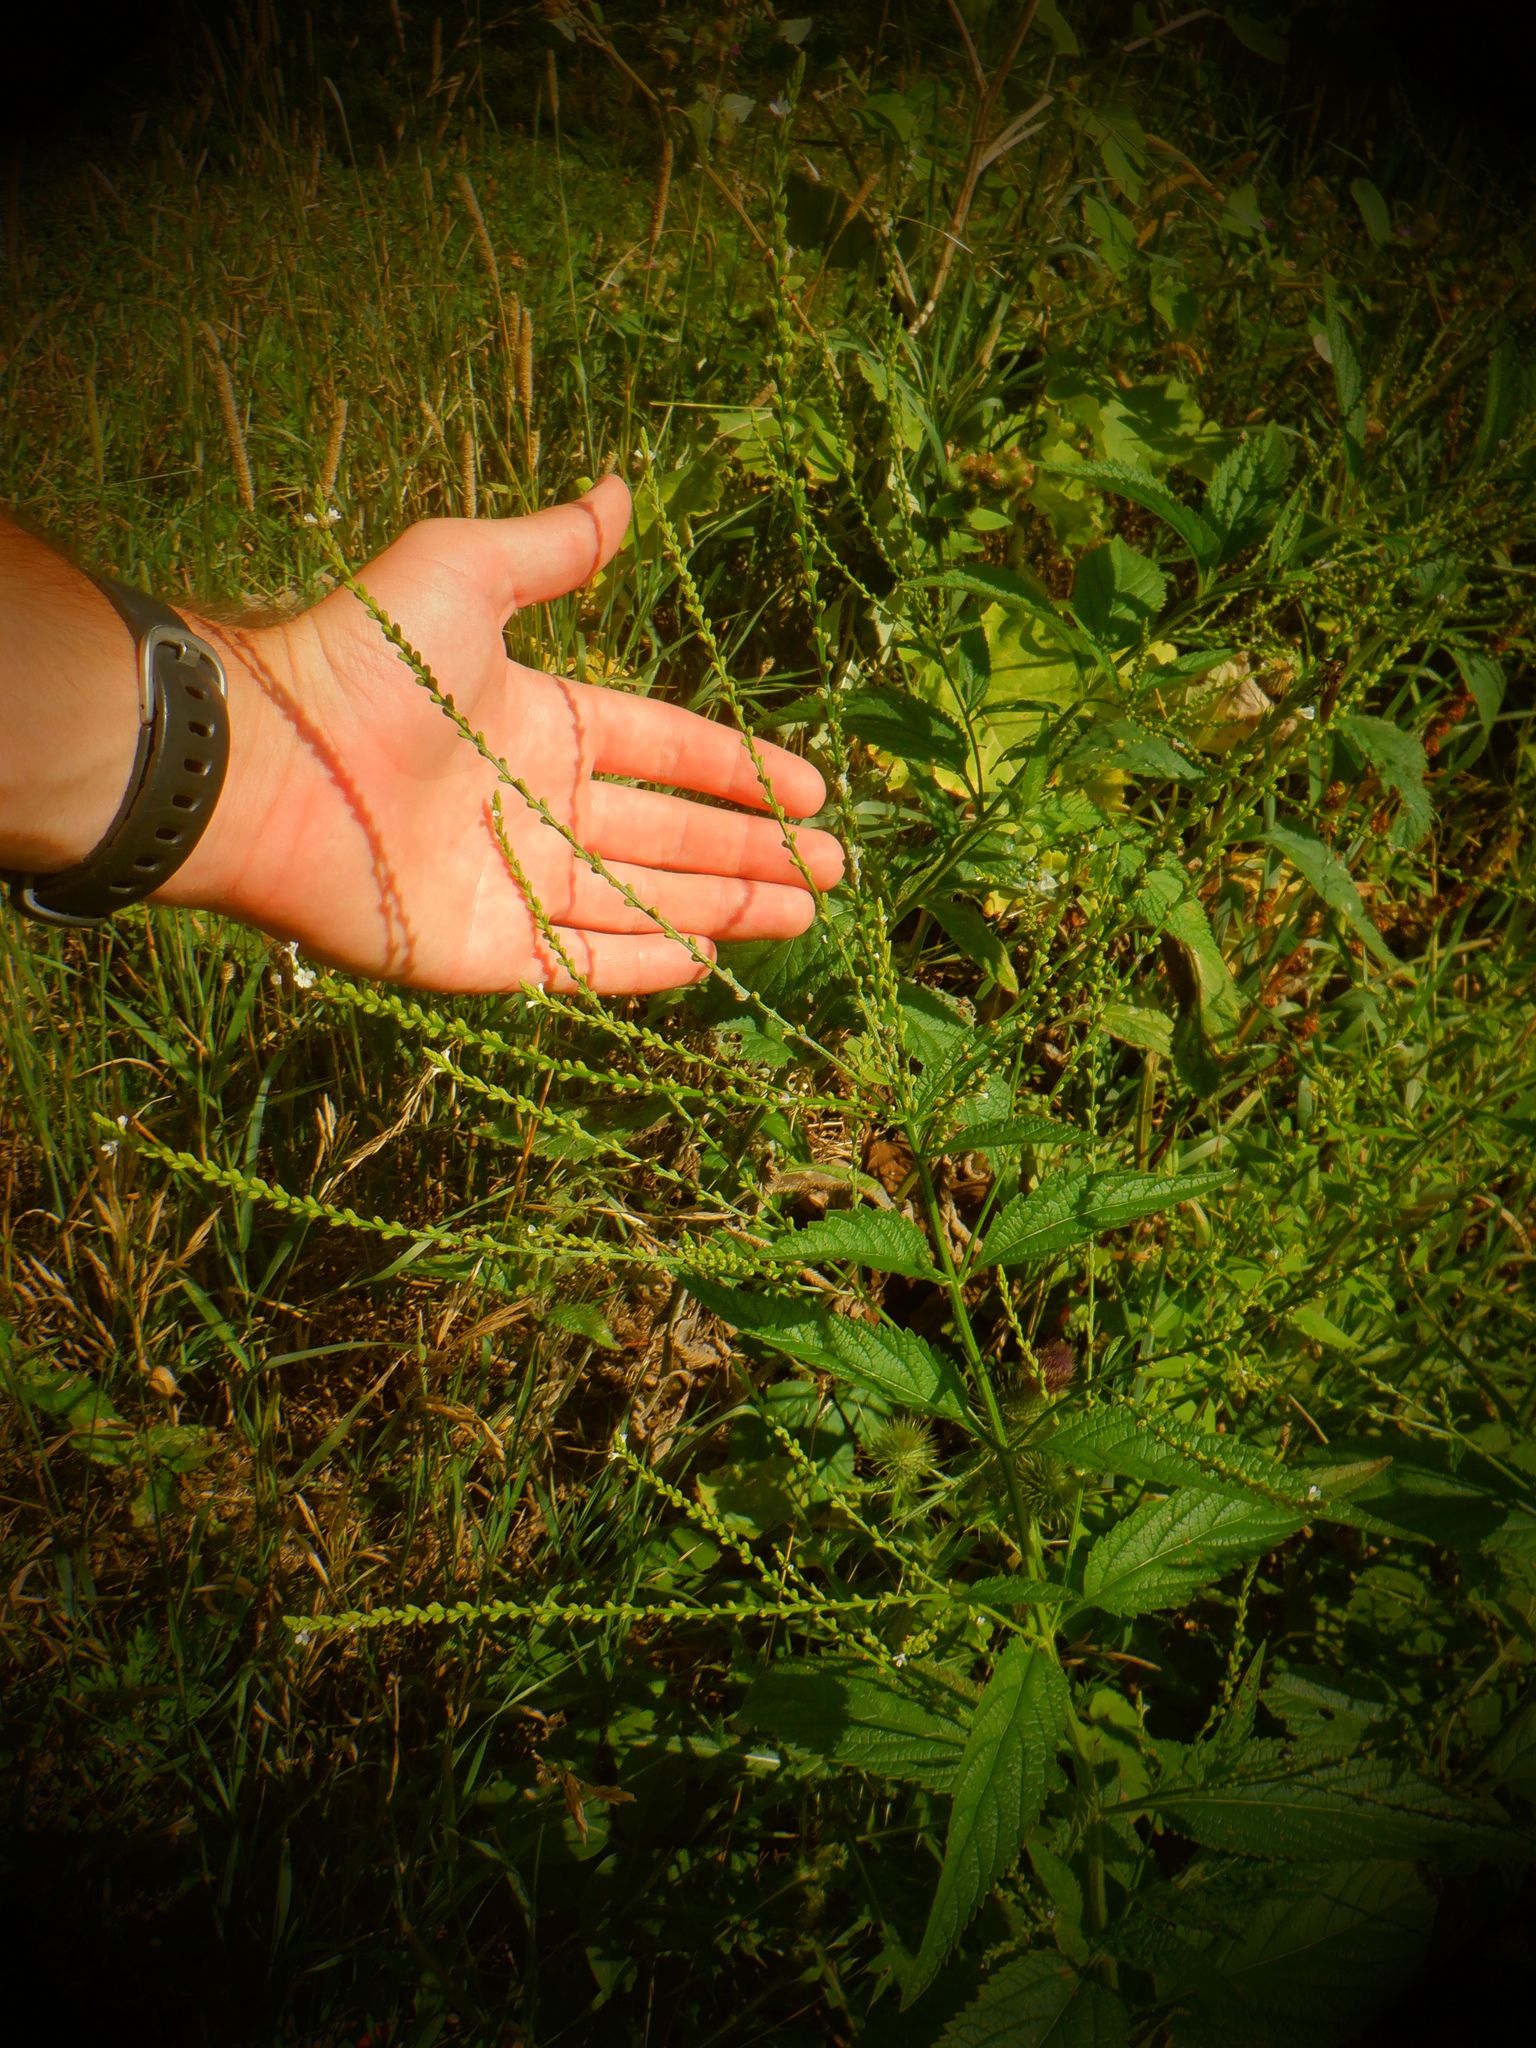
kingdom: Plantae
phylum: Tracheophyta
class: Magnoliopsida
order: Lamiales
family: Verbenaceae
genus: Verbena
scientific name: Verbena urticifolia
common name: Nettle-leaved vervain
